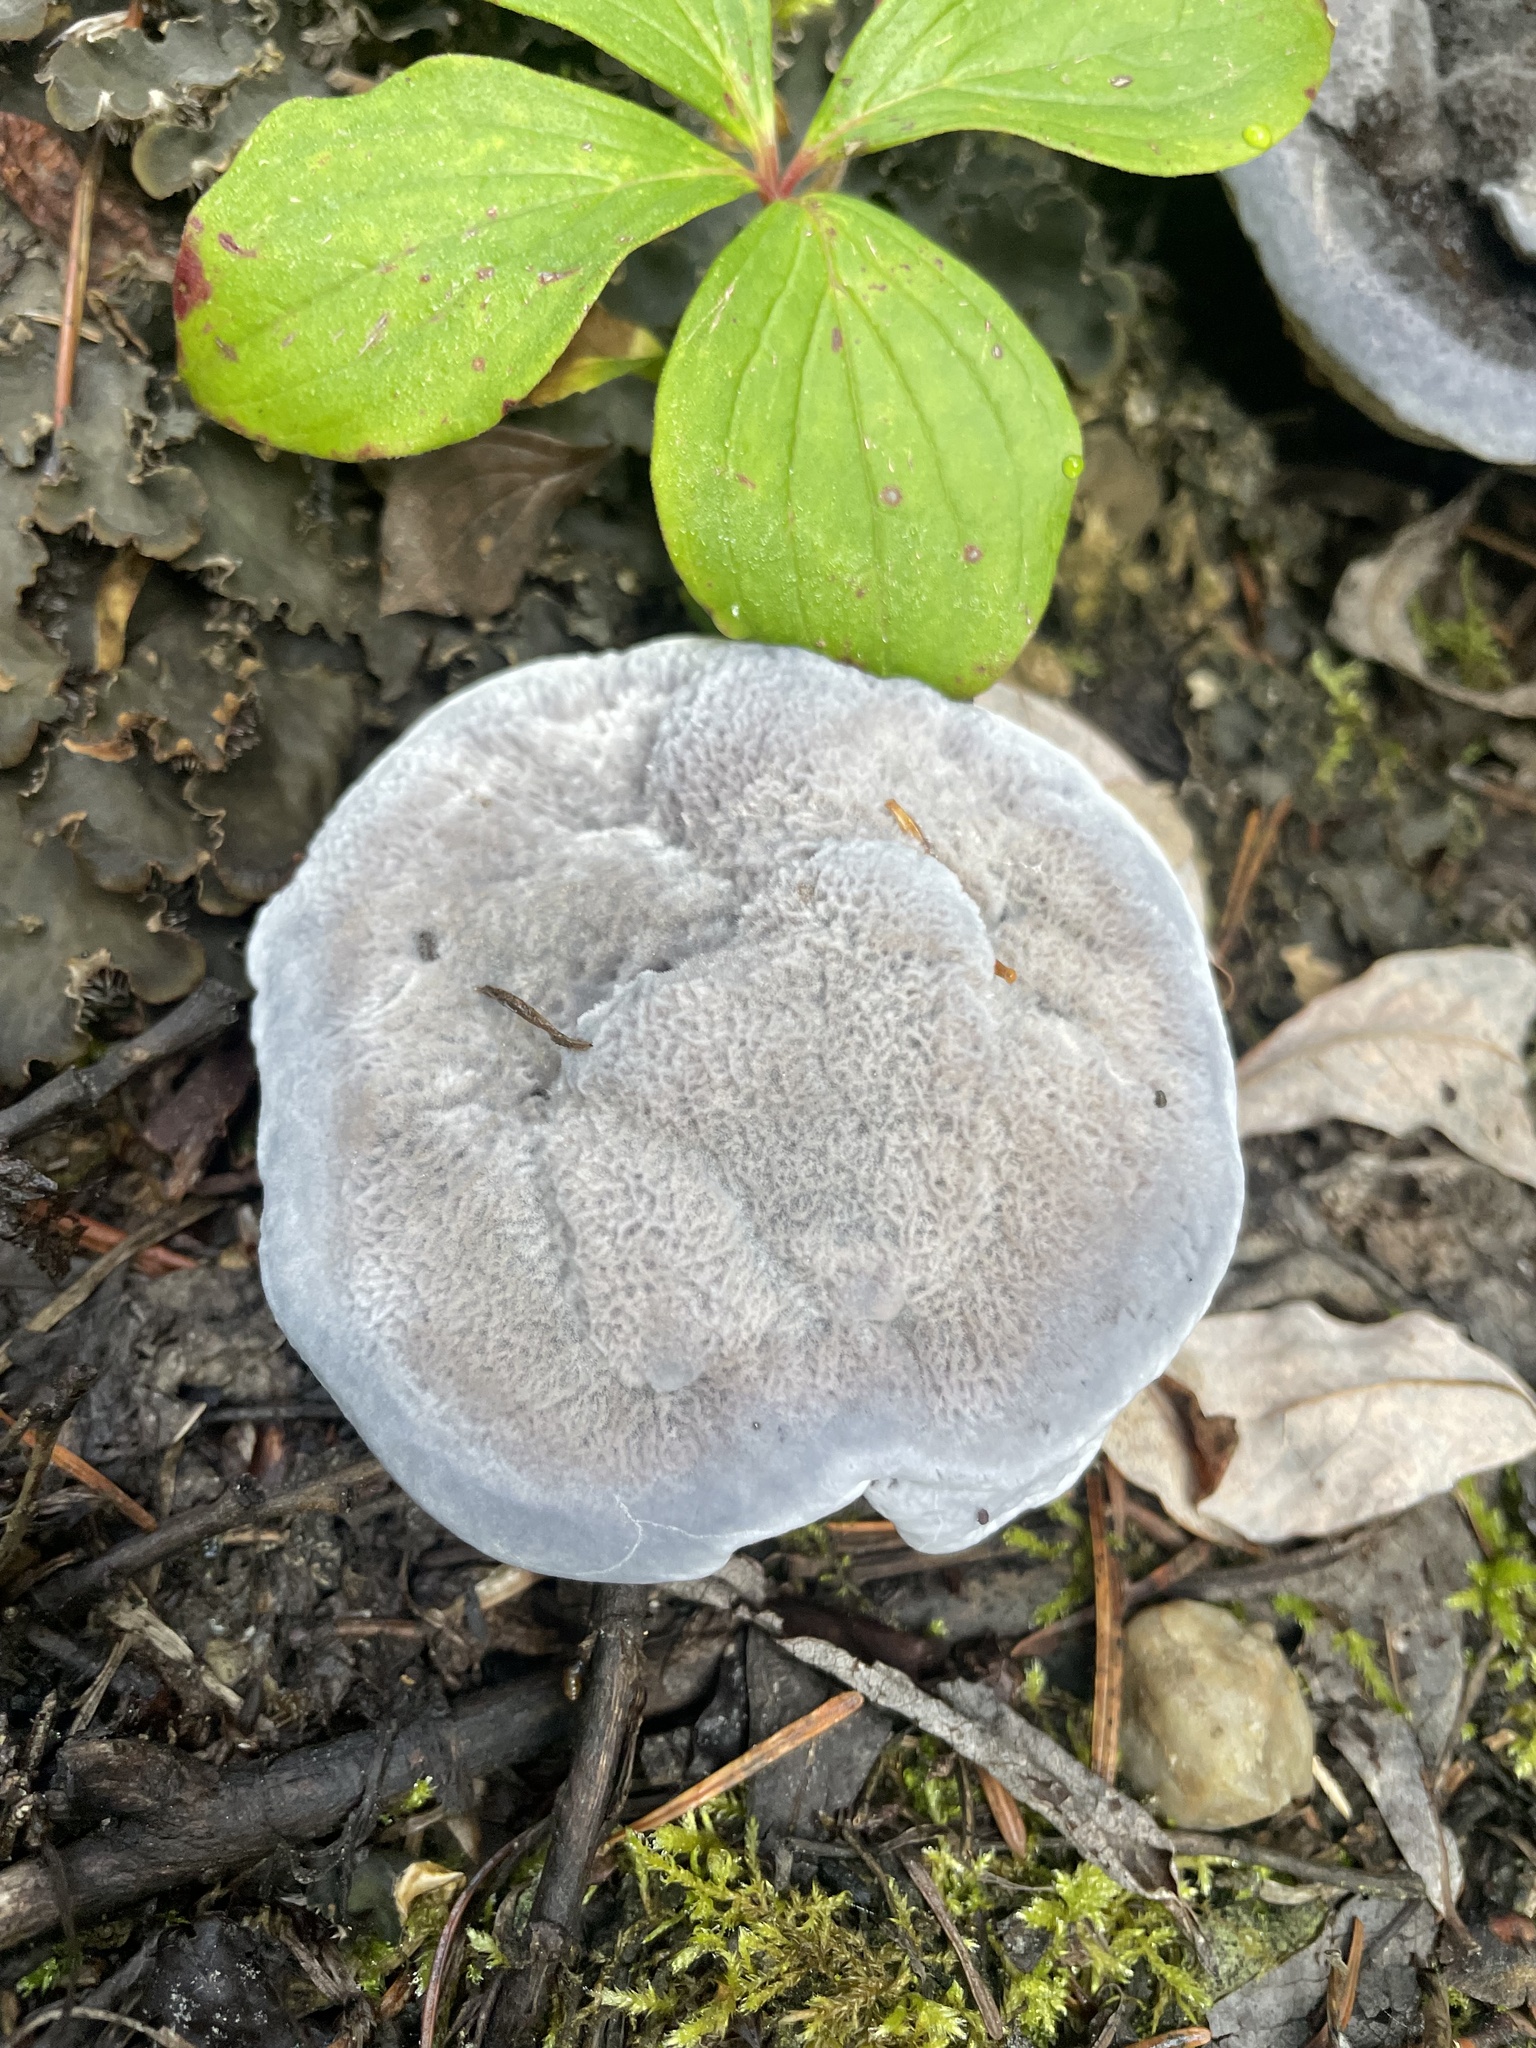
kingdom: Fungi
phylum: Basidiomycota
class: Agaricomycetes
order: Thelephorales
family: Bankeraceae
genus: Hydnellum
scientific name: Hydnellum caeruleum
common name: Blue corky spine fungus
